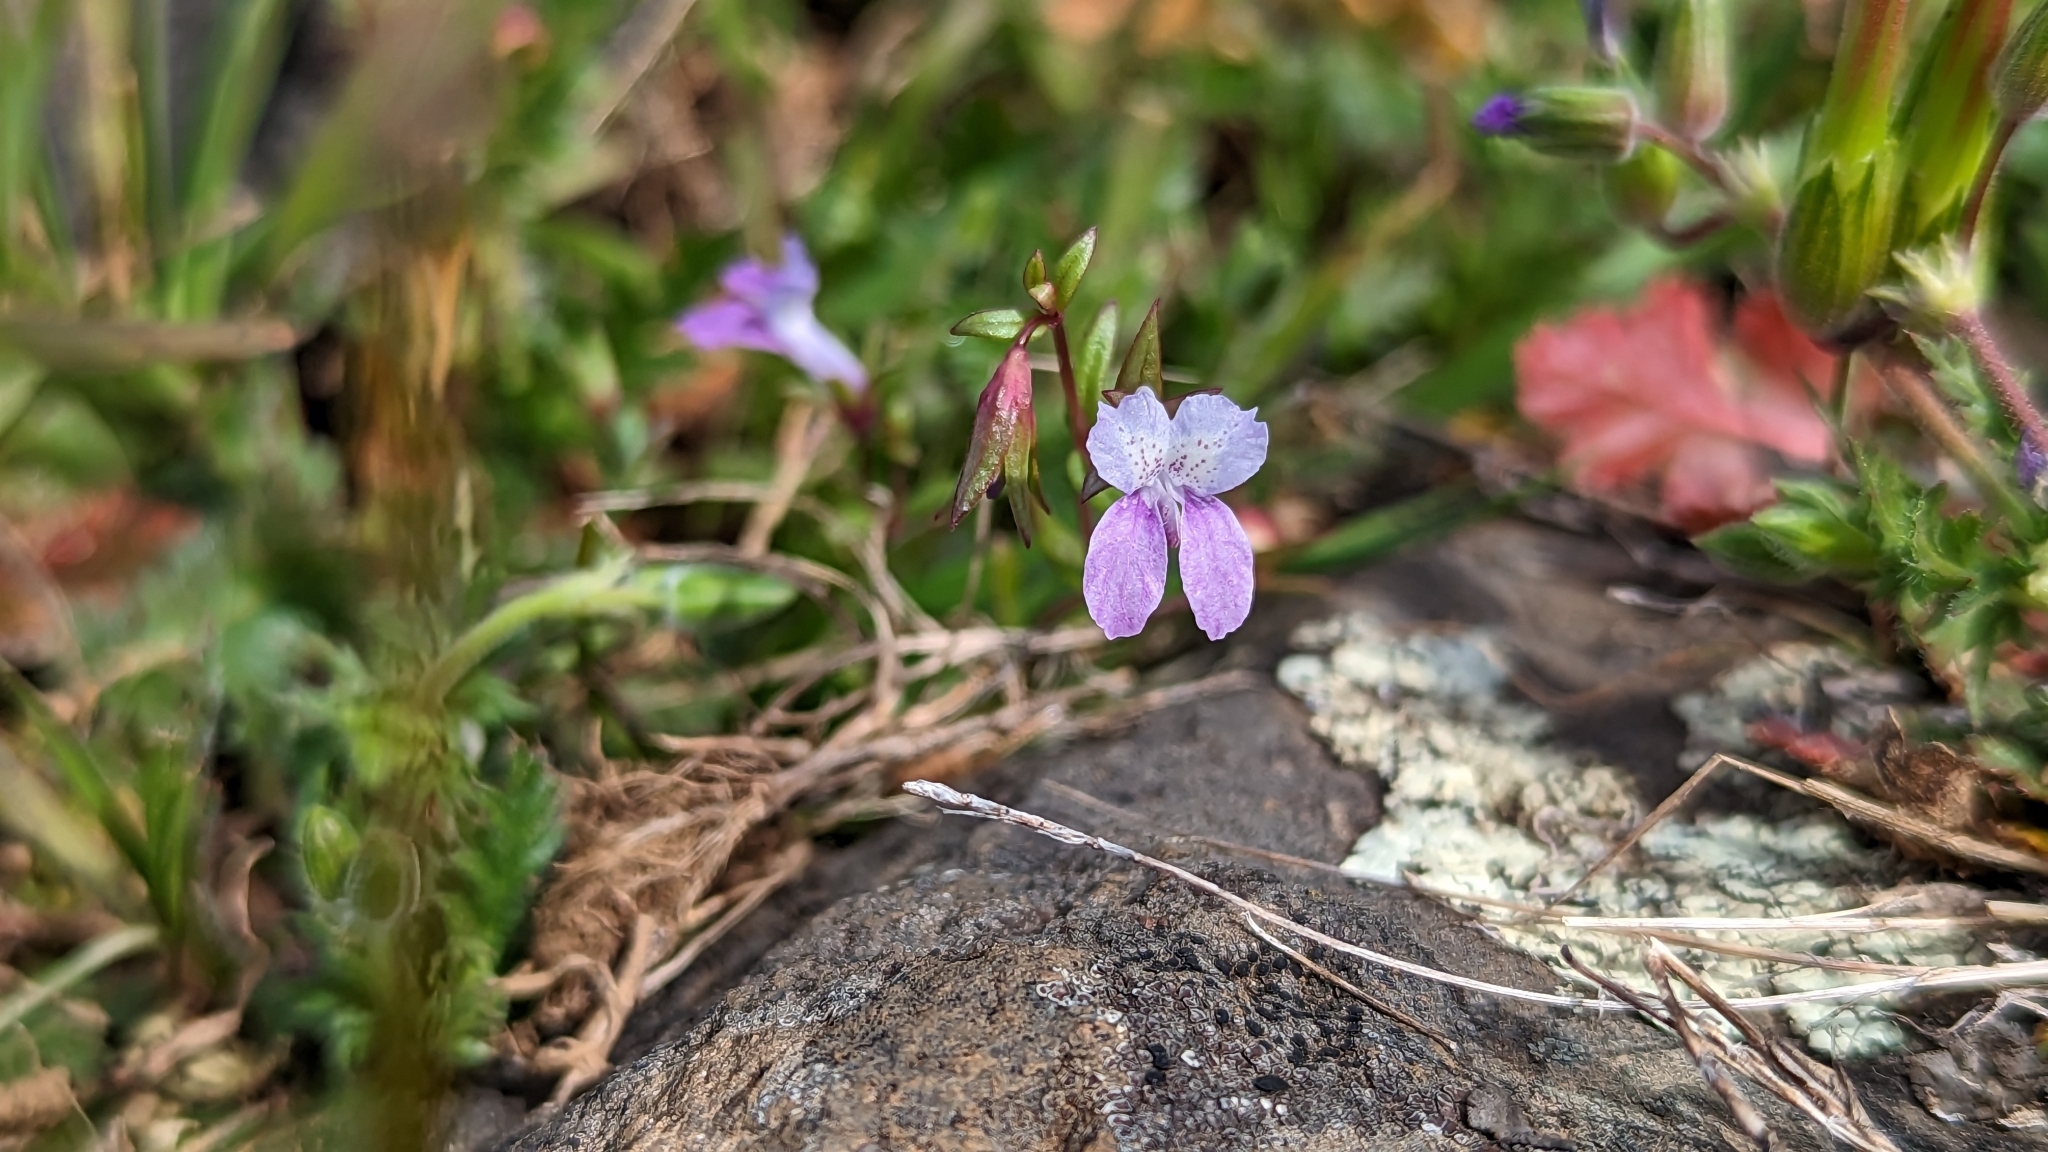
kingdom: Plantae
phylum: Tracheophyta
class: Magnoliopsida
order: Lamiales
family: Plantaginaceae
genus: Collinsia
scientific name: Collinsia sparsiflora
